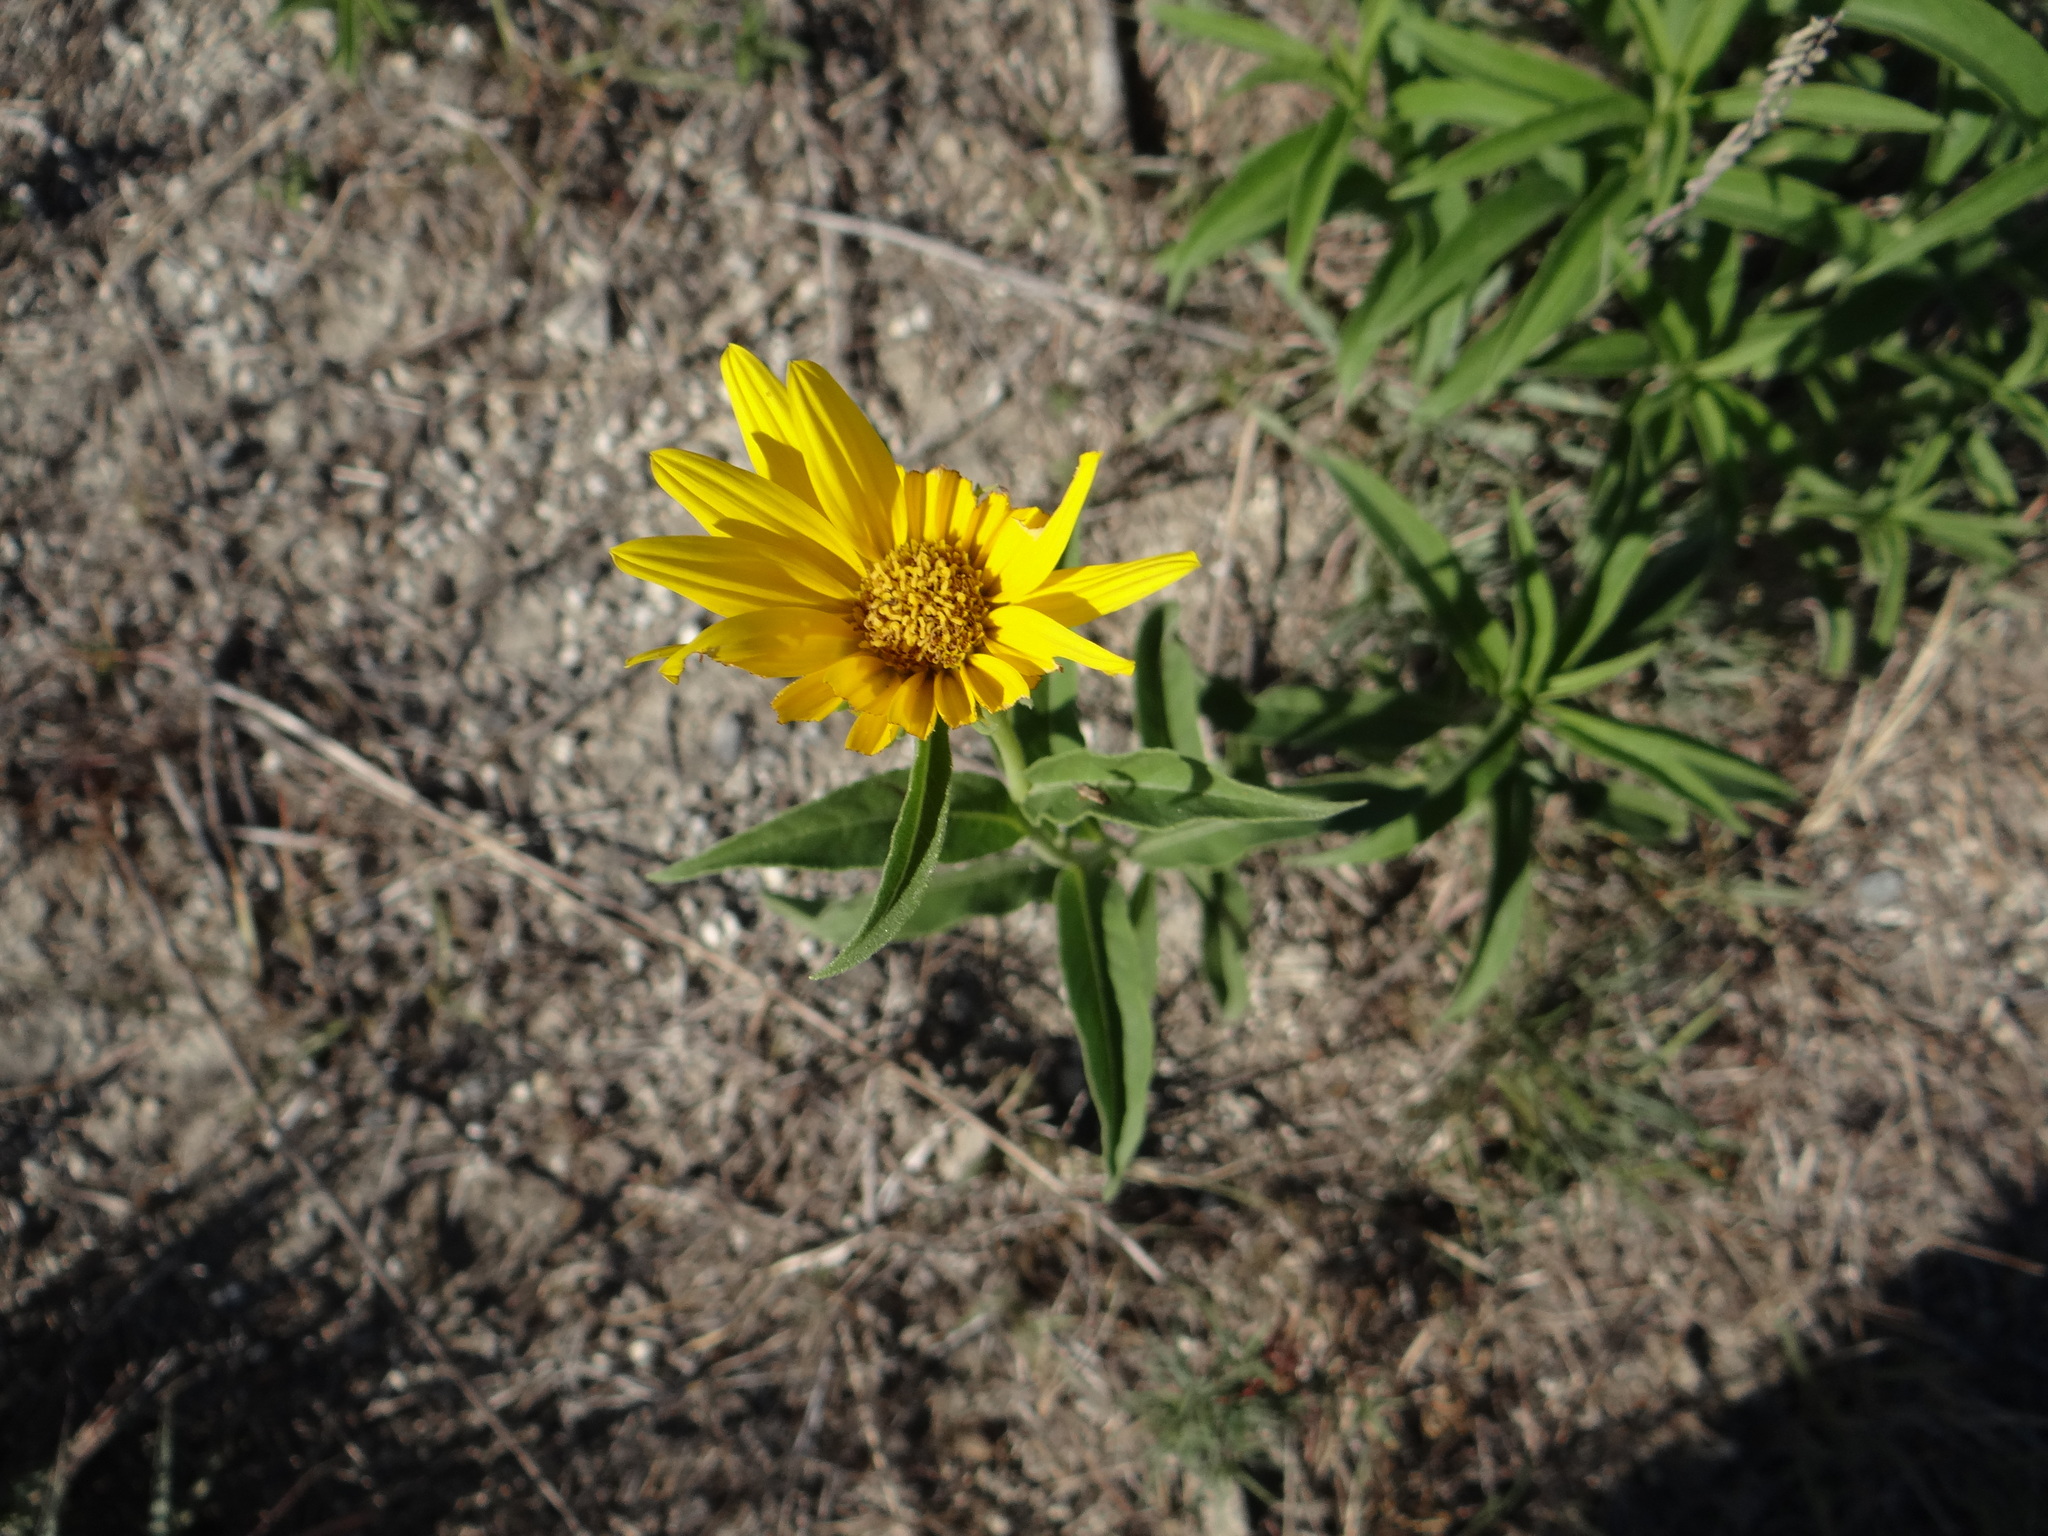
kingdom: Plantae
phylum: Tracheophyta
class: Magnoliopsida
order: Asterales
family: Asteraceae
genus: Helianthus
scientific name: Helianthus maximiliani
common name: Maximilian's sunflower
